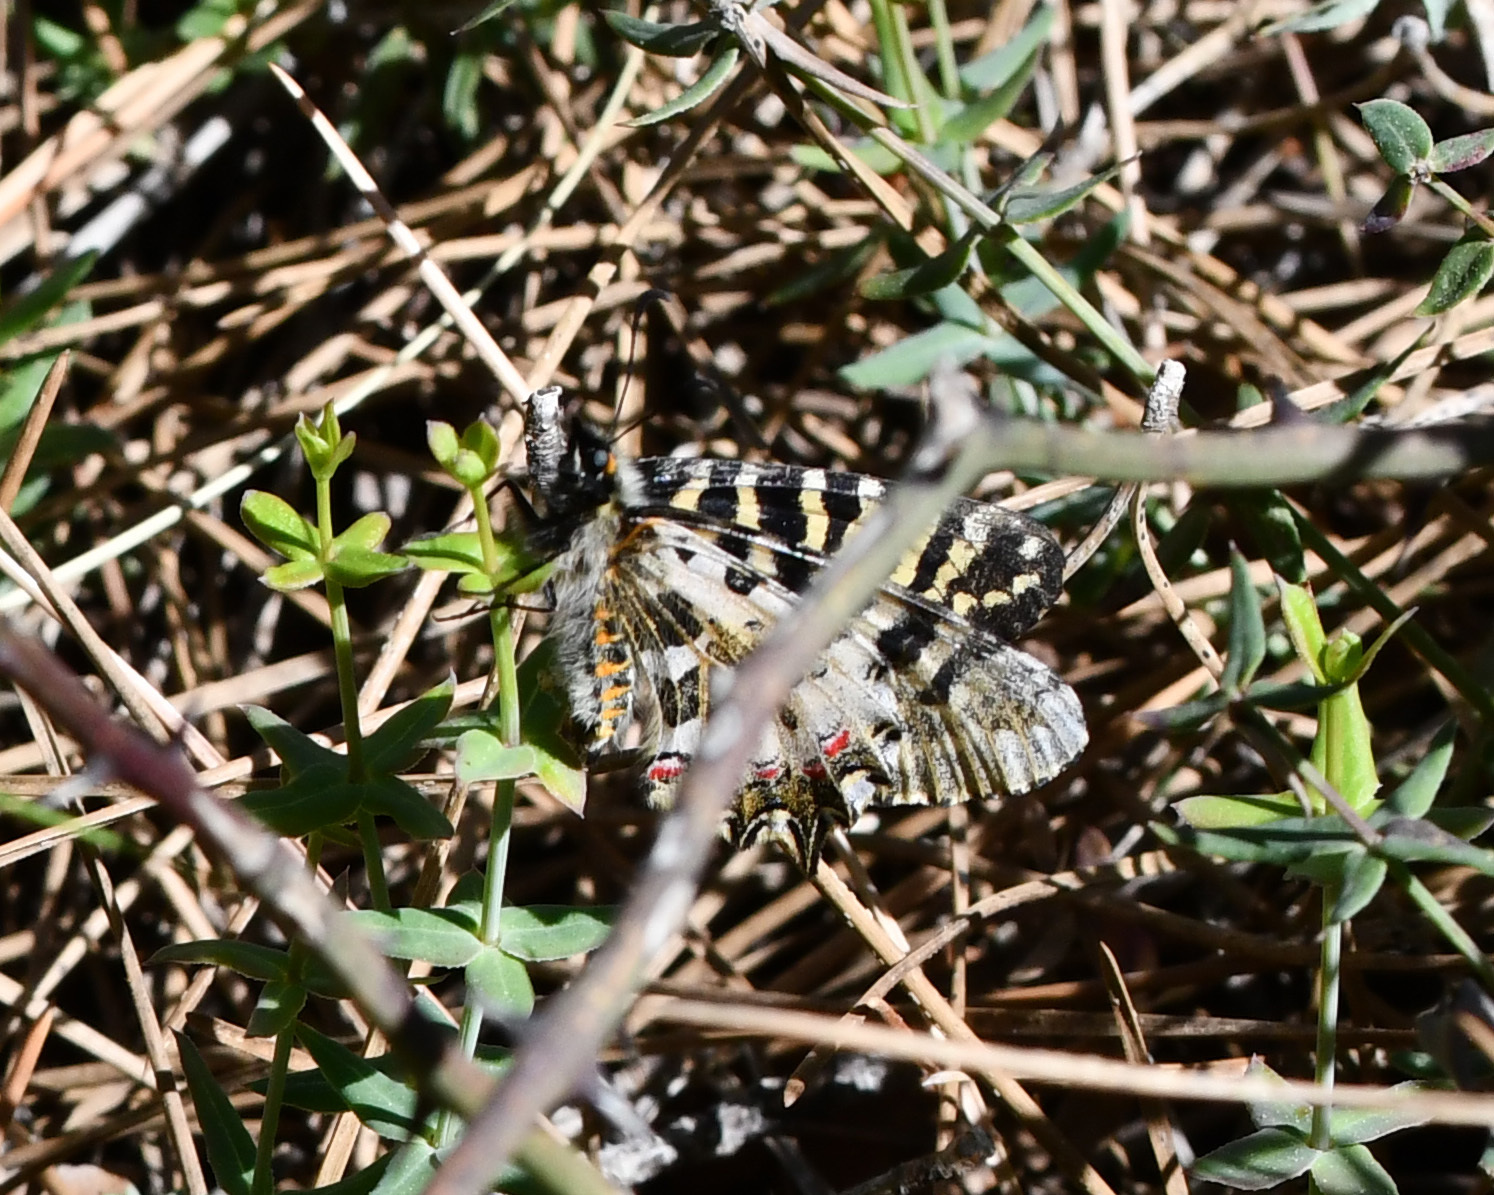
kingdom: Animalia
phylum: Arthropoda
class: Insecta
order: Lepidoptera
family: Papilionidae
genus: Zerynthia
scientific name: Zerynthia cerisy
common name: Eastern festoon
